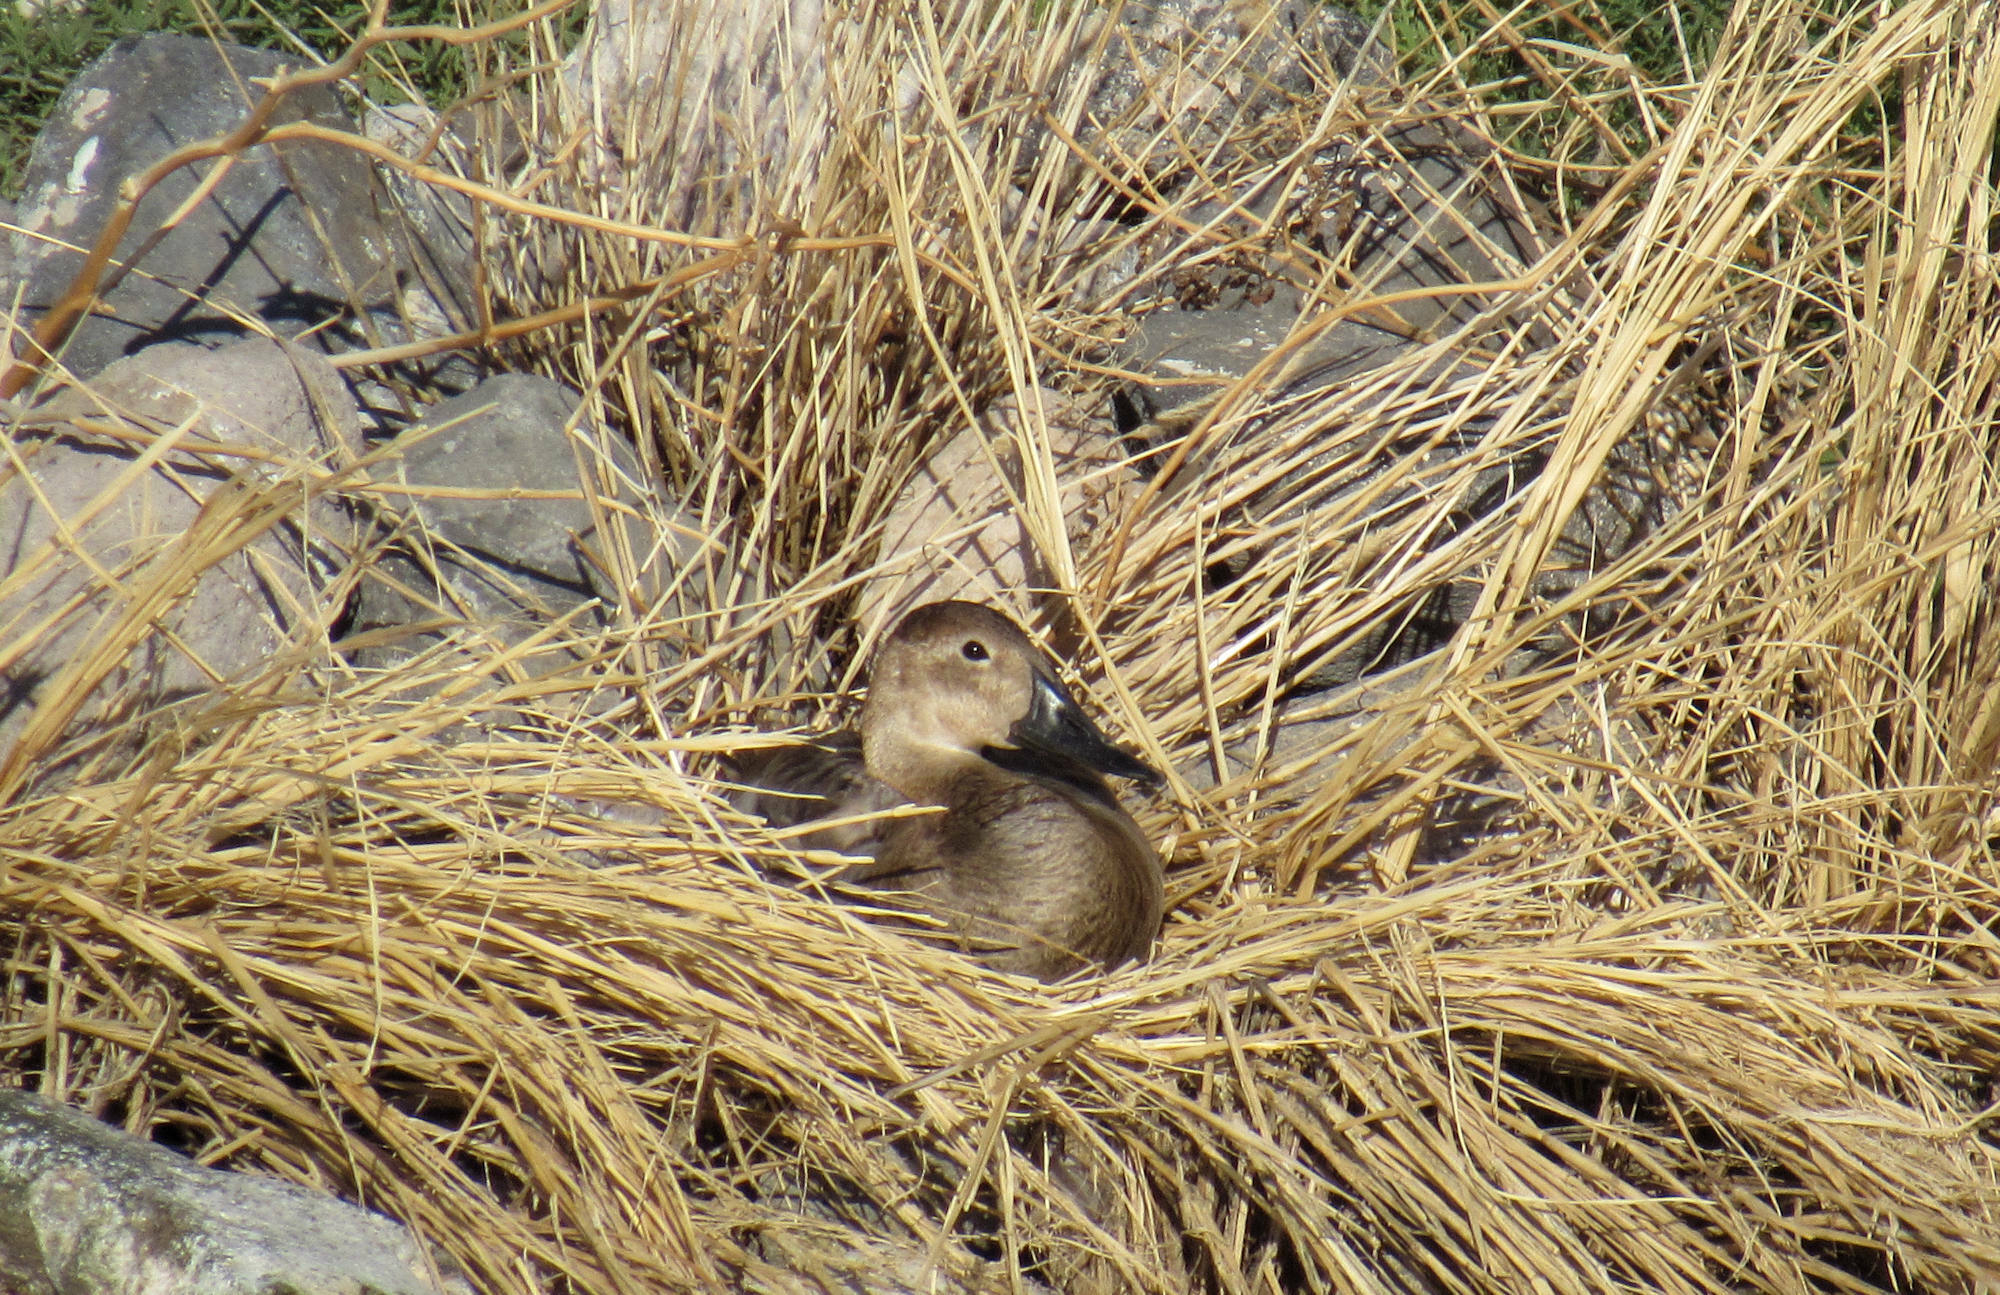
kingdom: Animalia
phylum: Chordata
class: Aves
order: Anseriformes
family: Anatidae
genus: Aythya
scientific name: Aythya valisineria
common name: Canvasback
